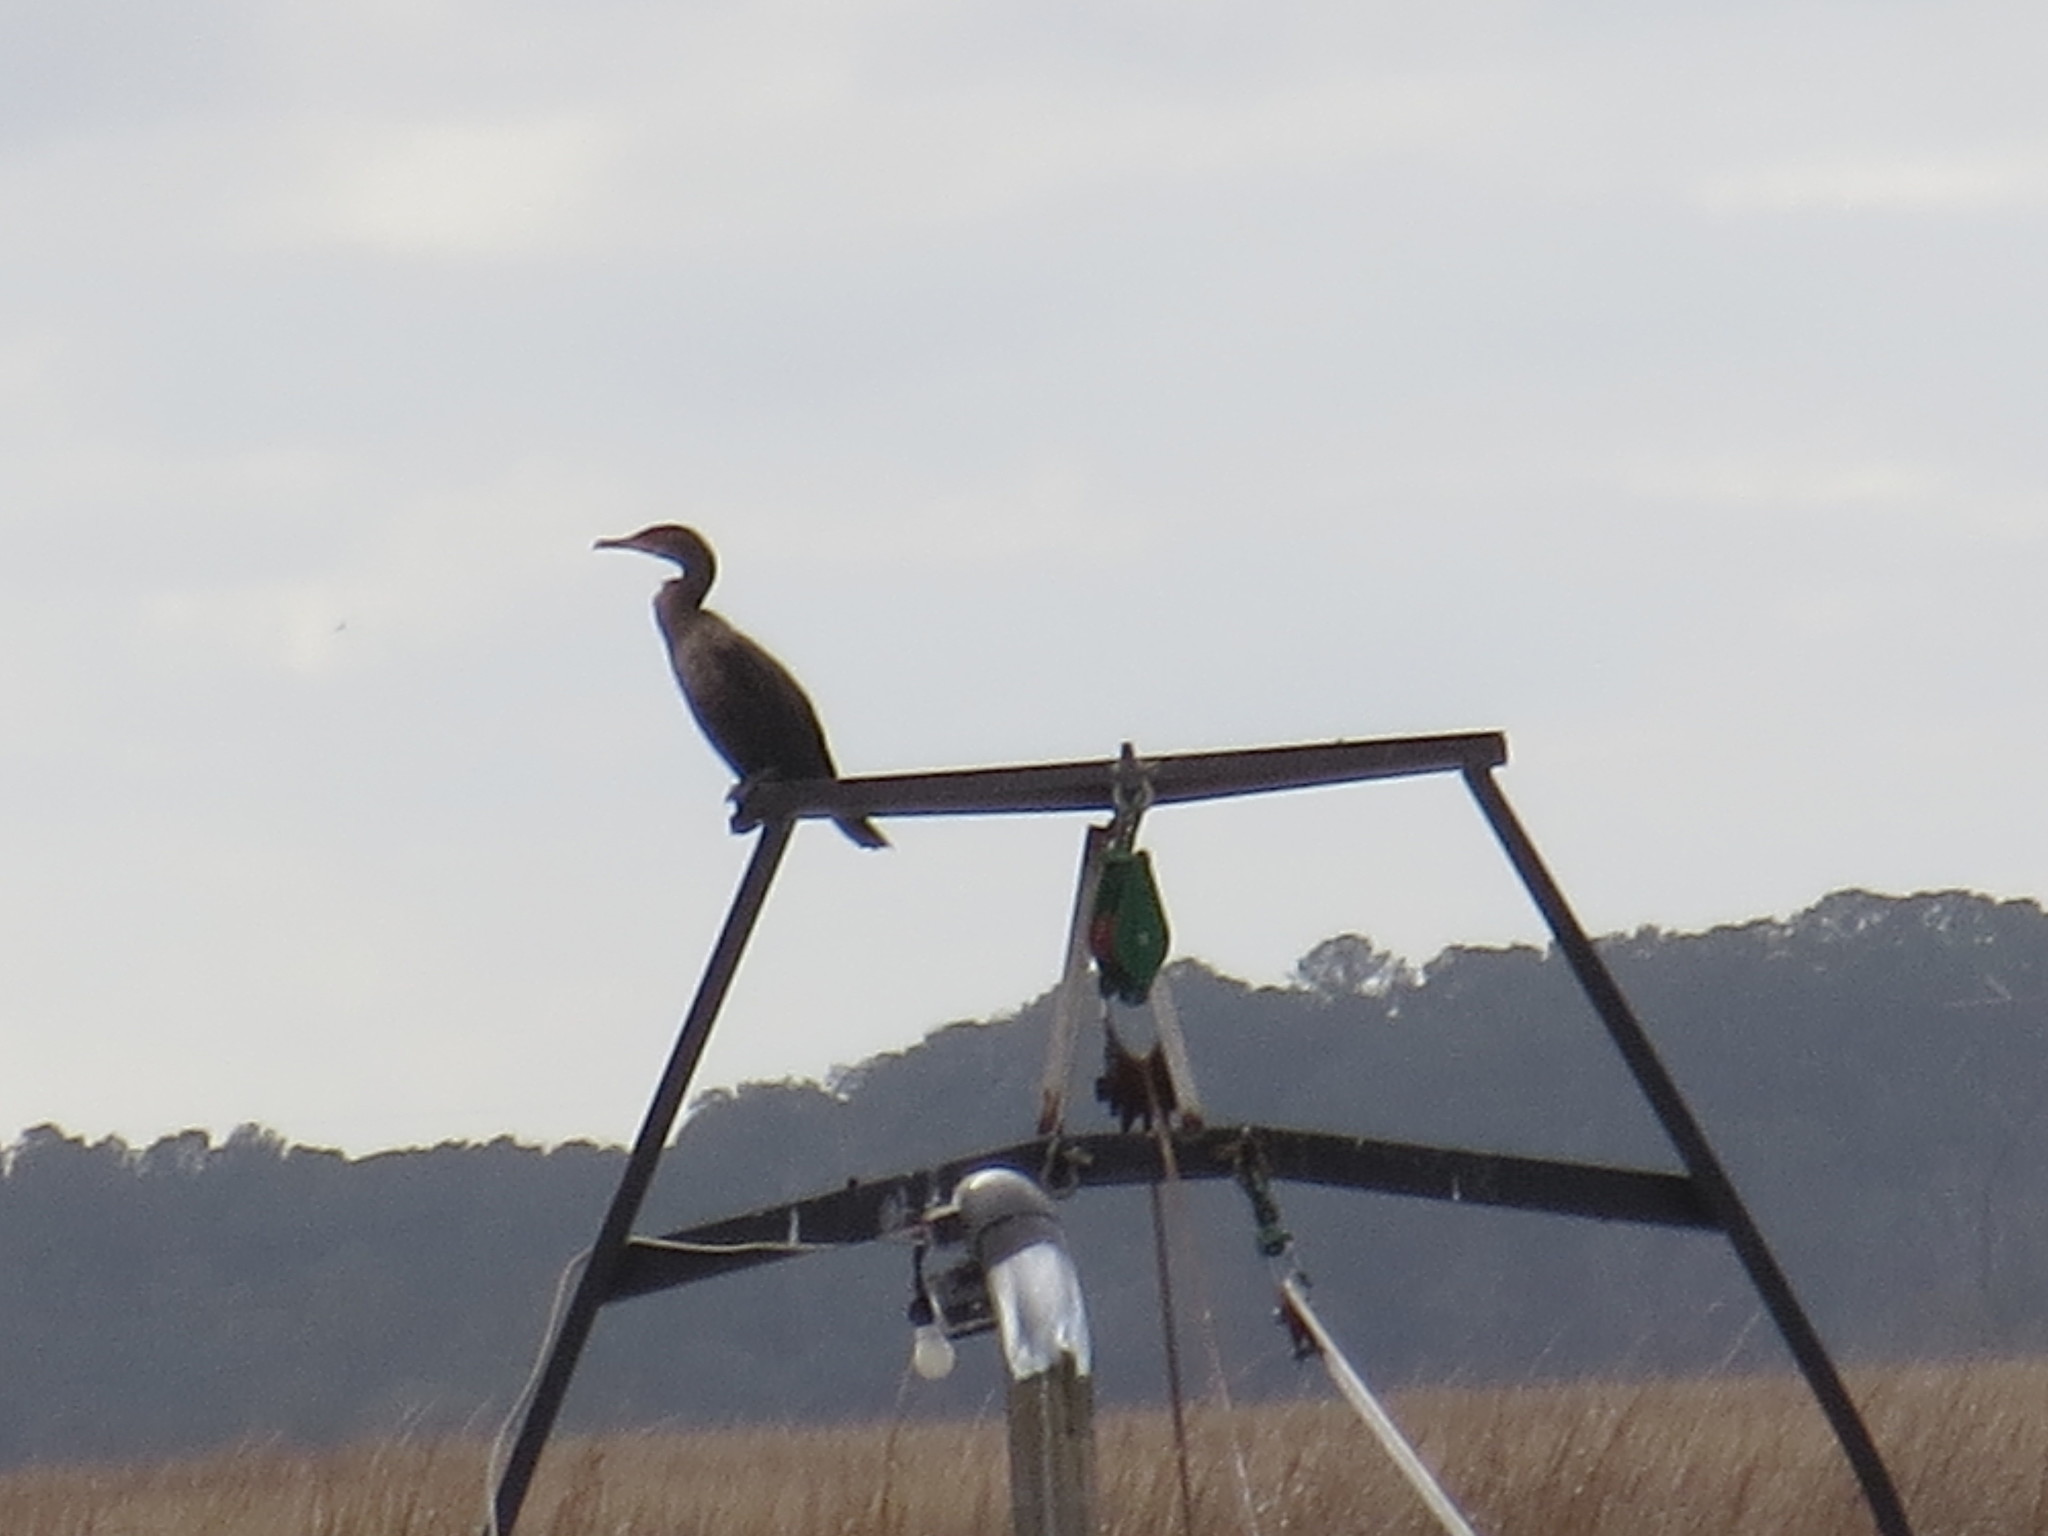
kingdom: Animalia
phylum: Chordata
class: Aves
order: Suliformes
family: Phalacrocoracidae
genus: Phalacrocorax
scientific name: Phalacrocorax auritus
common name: Double-crested cormorant
